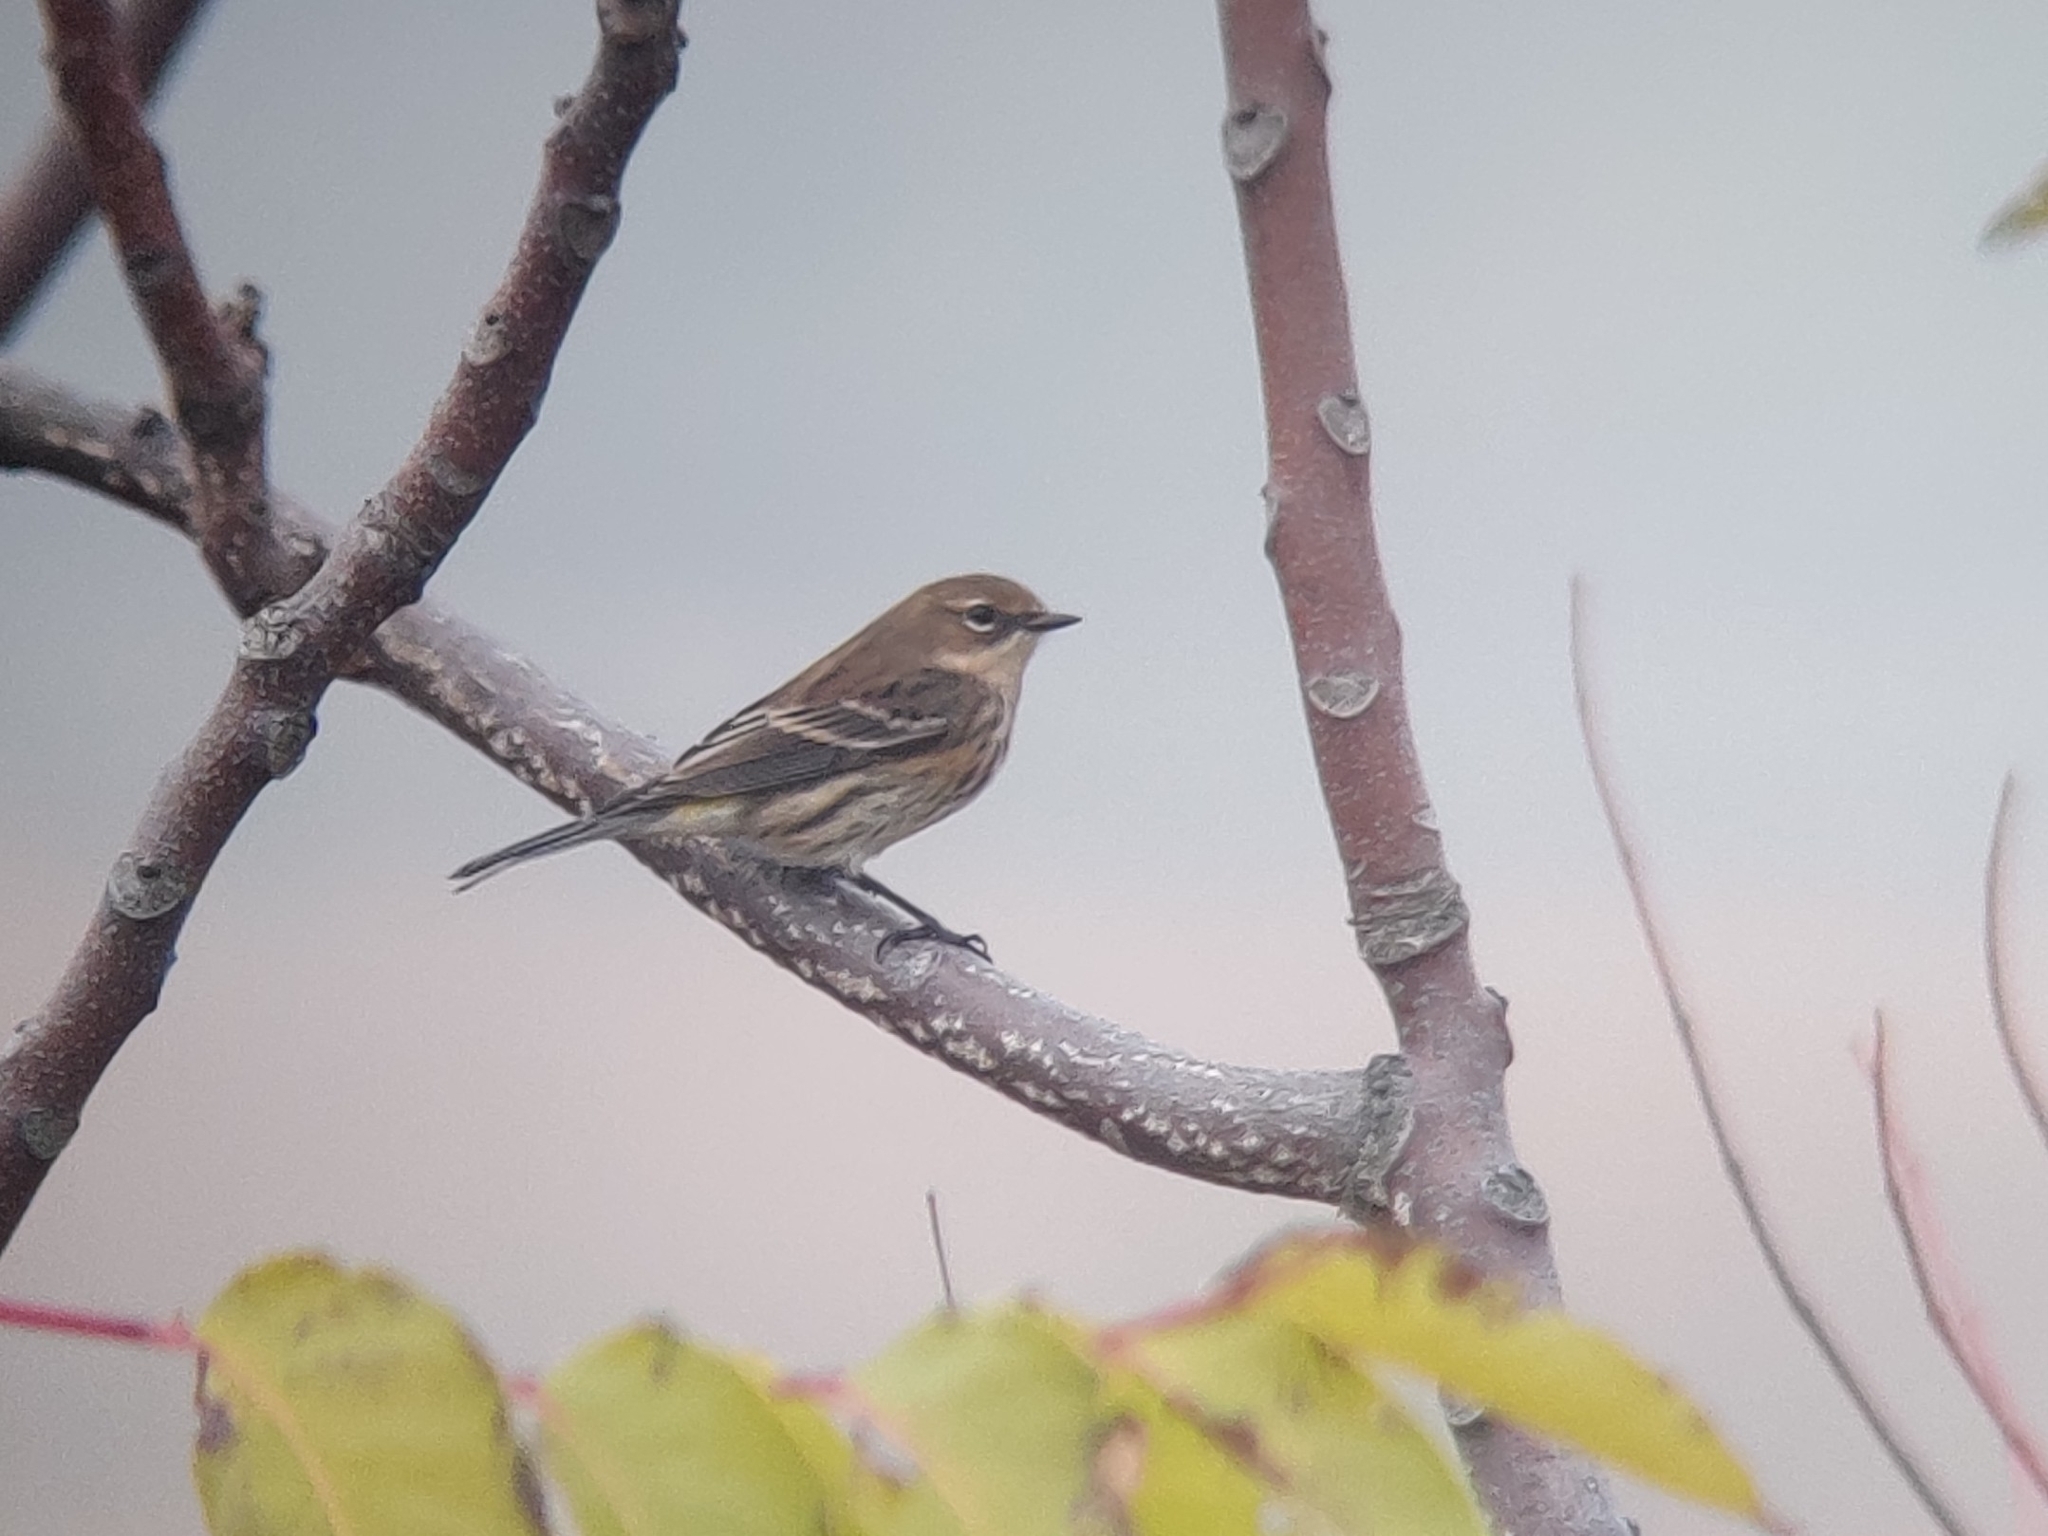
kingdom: Animalia
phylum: Chordata
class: Aves
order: Passeriformes
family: Parulidae
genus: Setophaga
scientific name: Setophaga coronata
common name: Myrtle warbler
